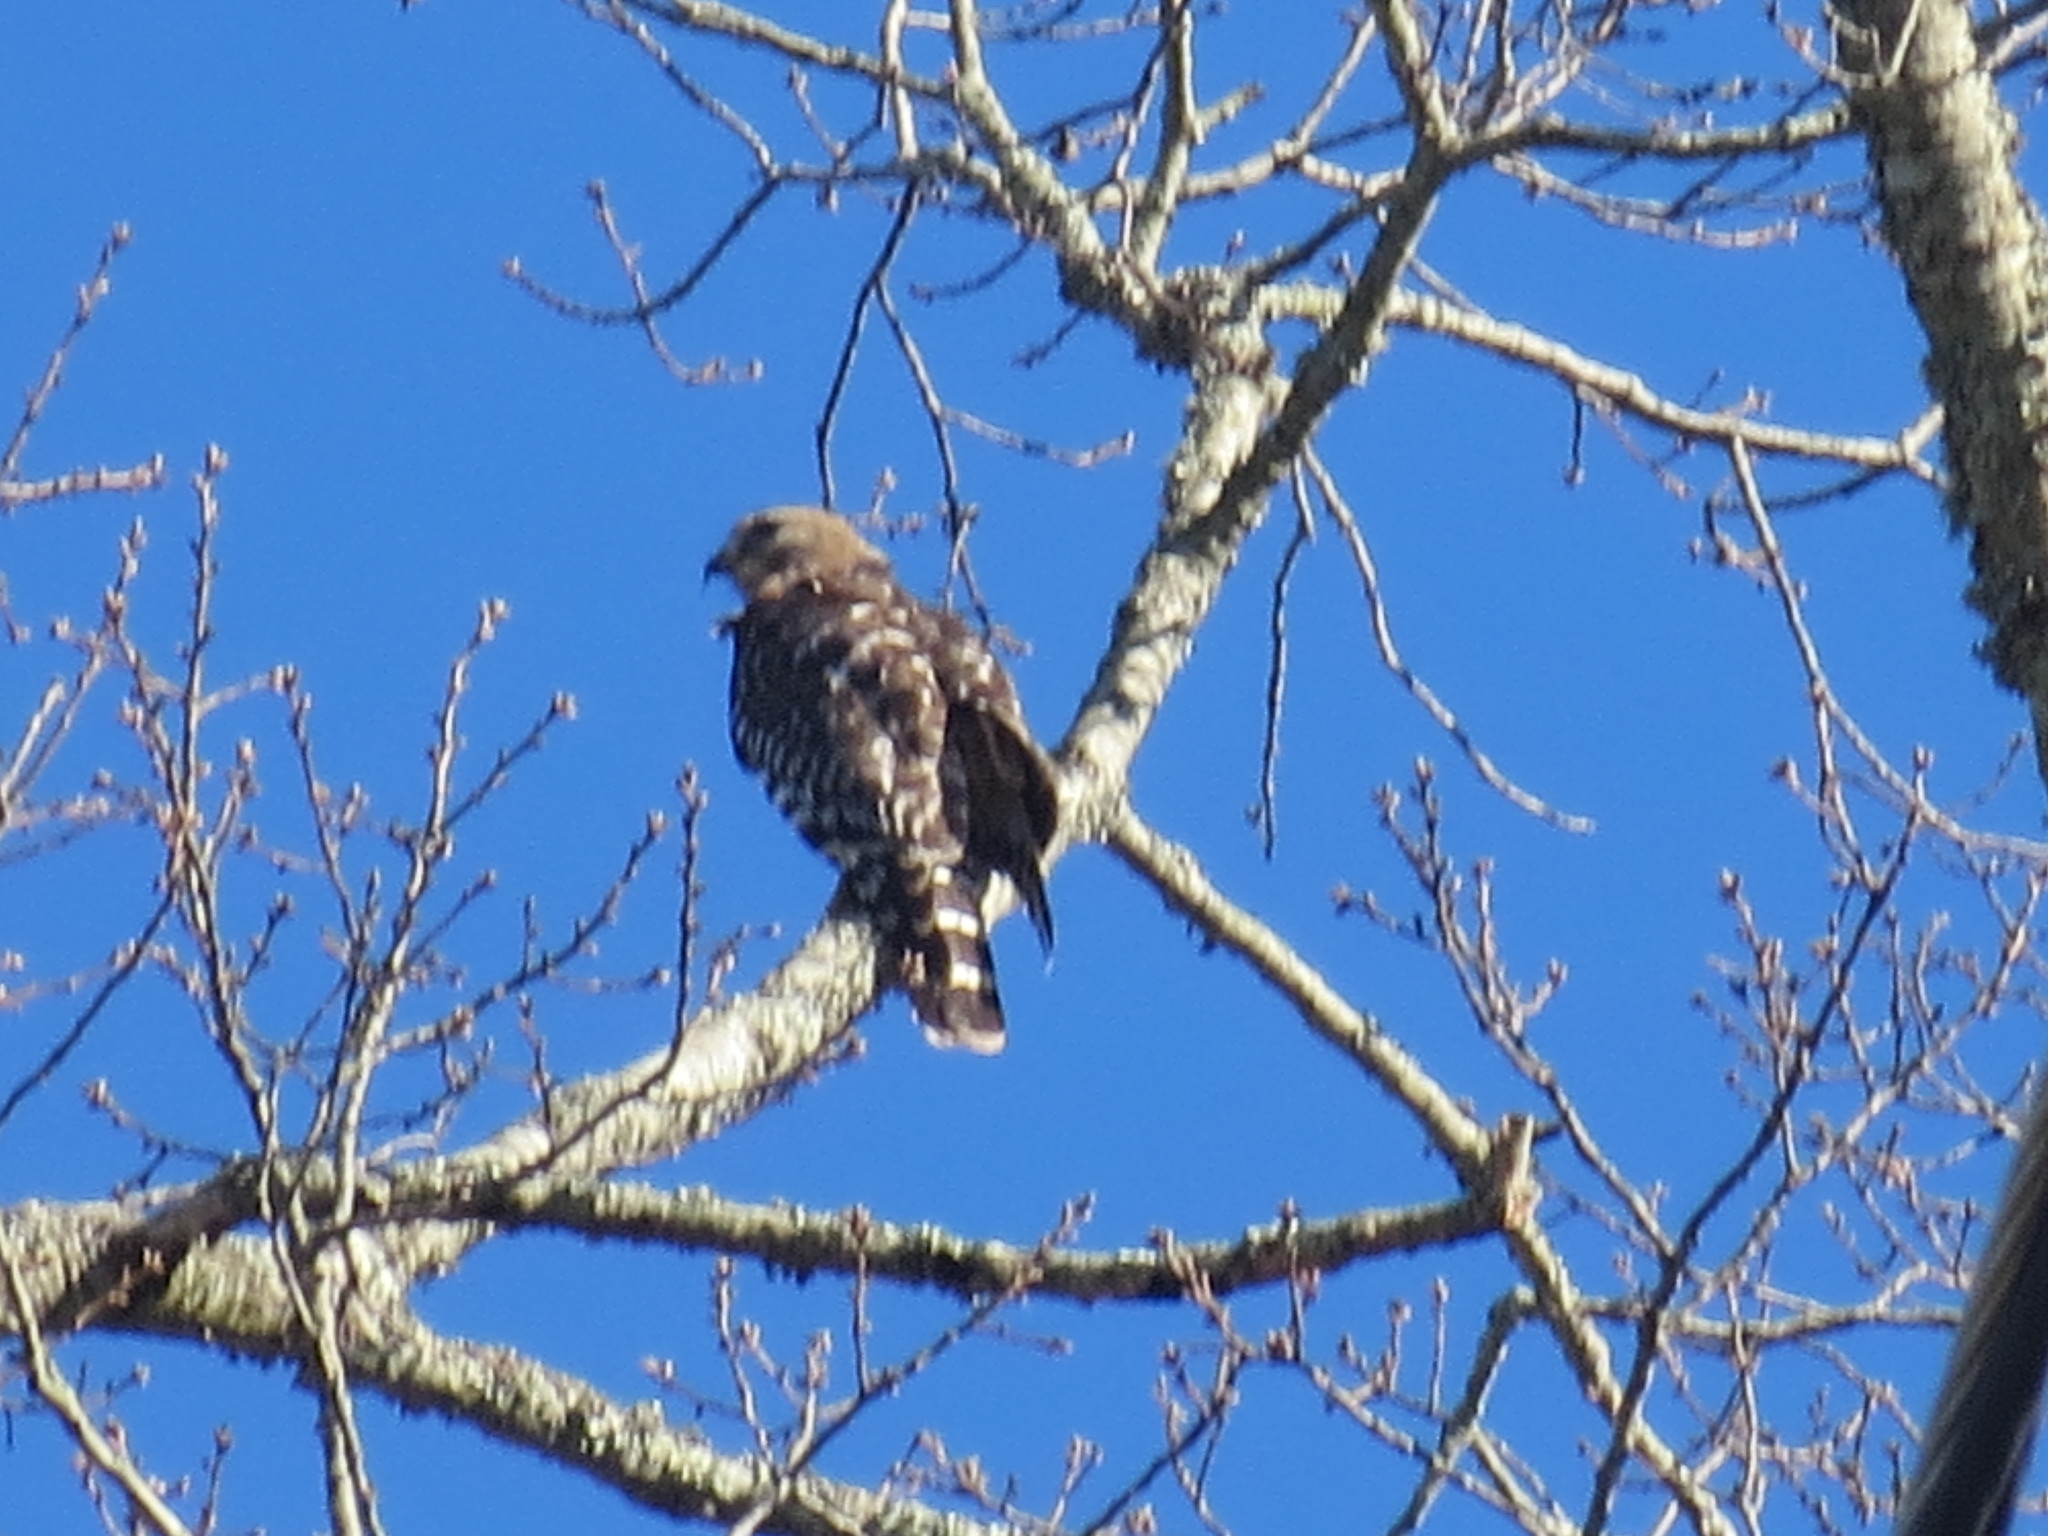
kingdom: Animalia
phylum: Chordata
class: Aves
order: Accipitriformes
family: Accipitridae
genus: Buteo
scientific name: Buteo lineatus
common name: Red-shouldered hawk
